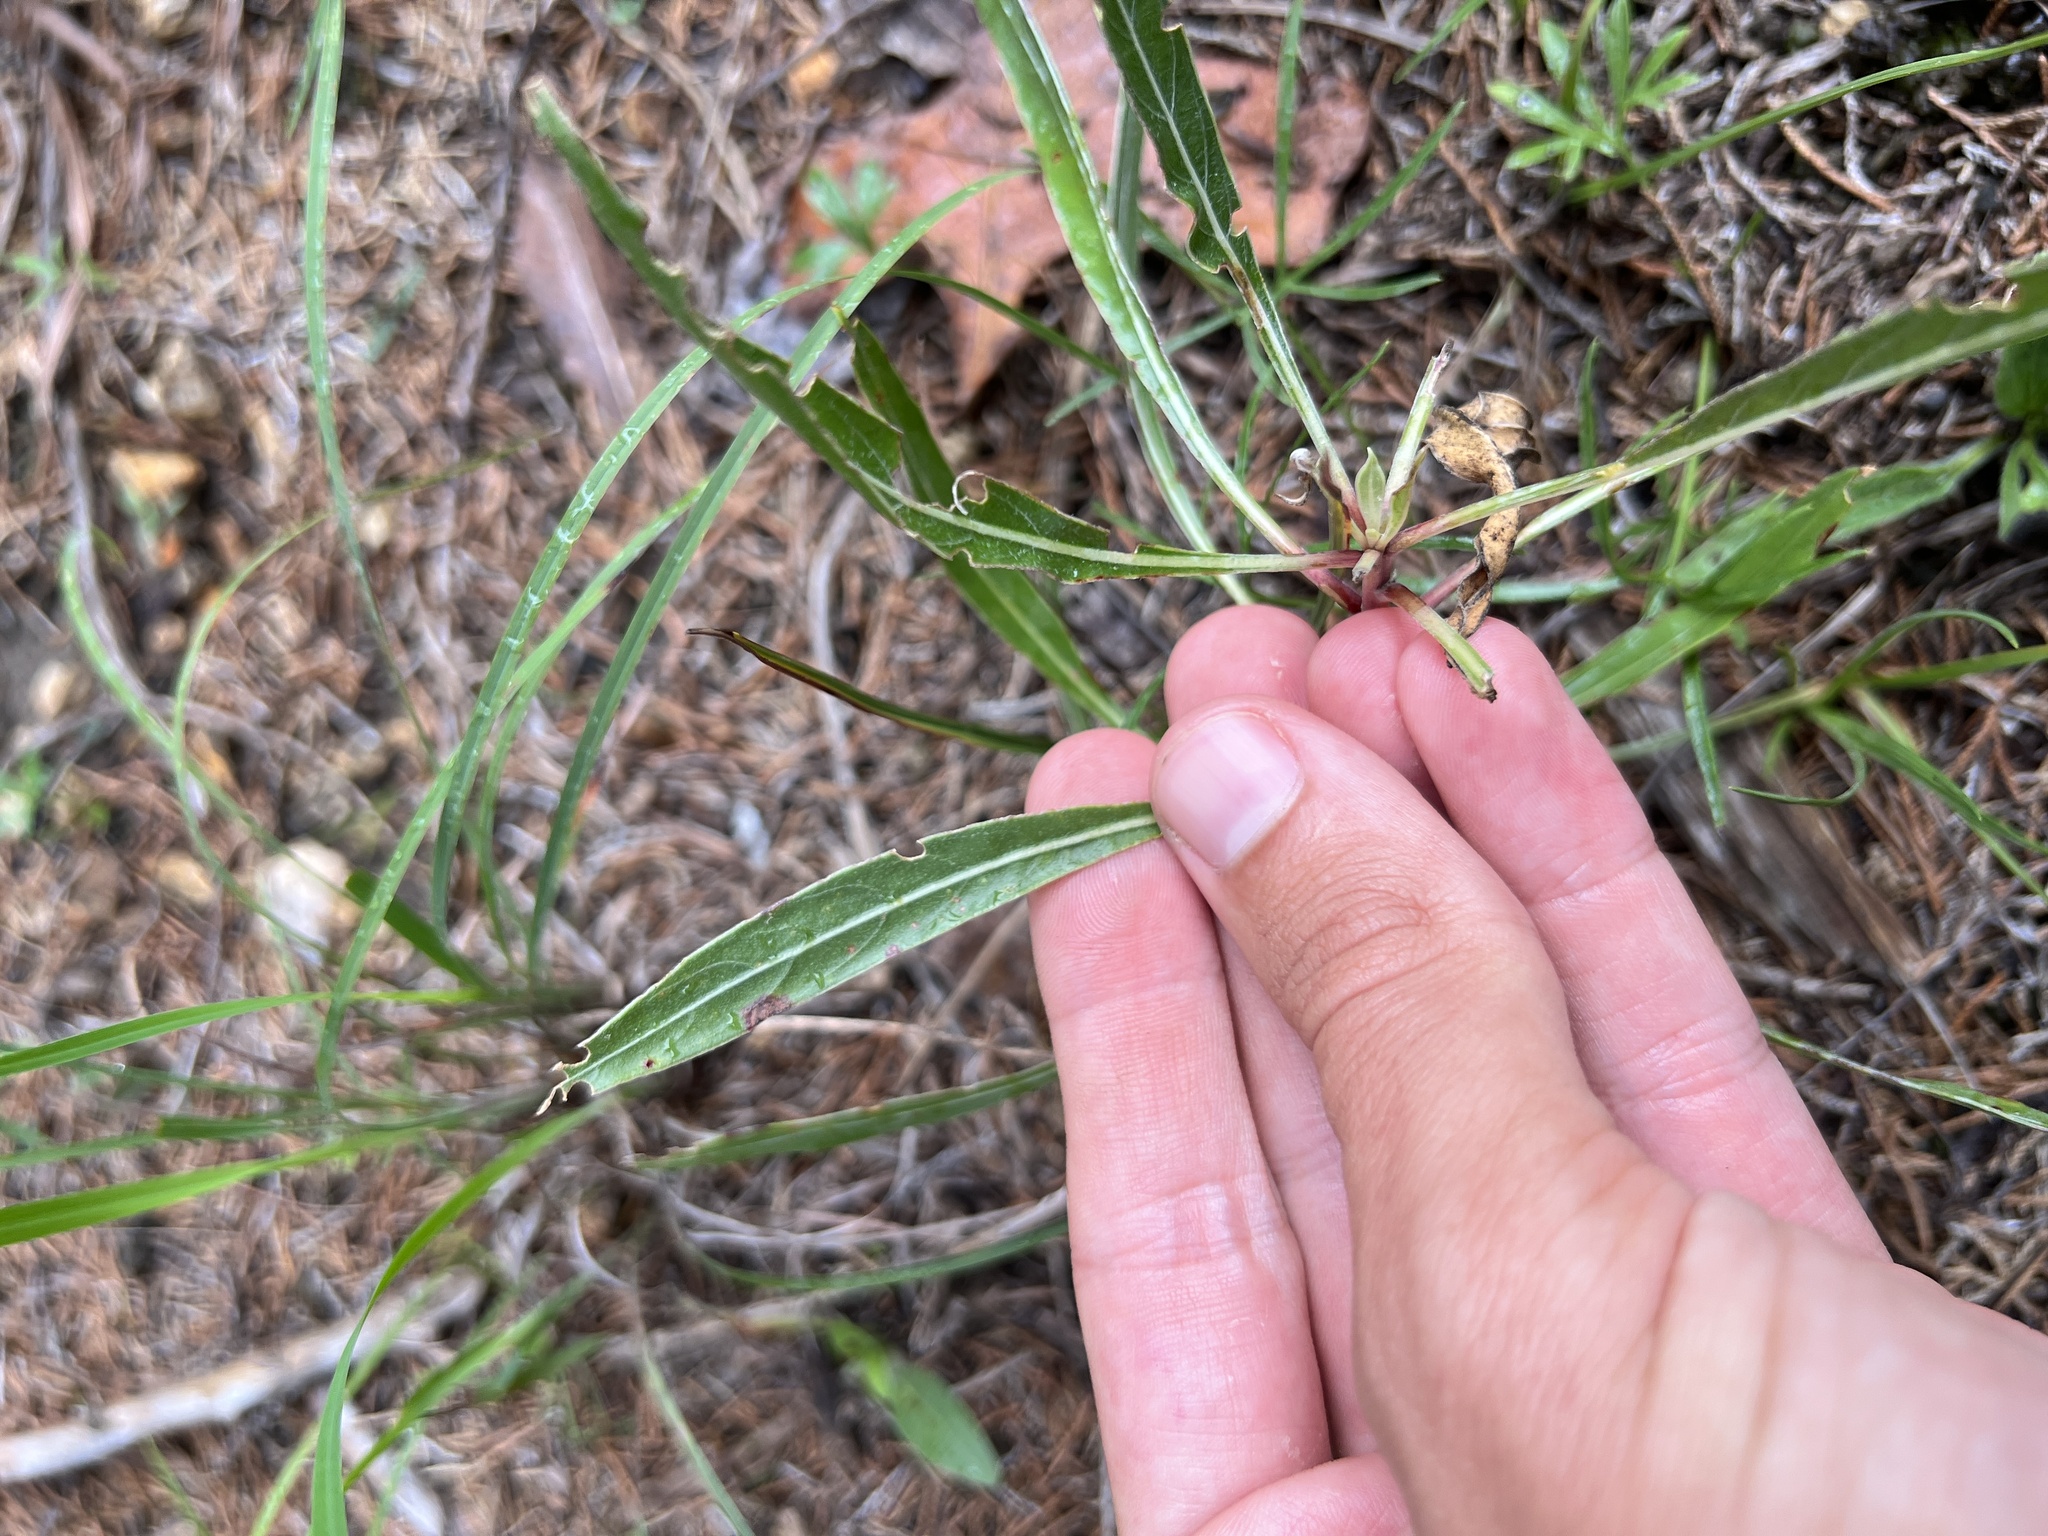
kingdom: Plantae
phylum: Tracheophyta
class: Magnoliopsida
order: Myrtales
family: Onagraceae
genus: Oenothera
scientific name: Oenothera macrocarpa
